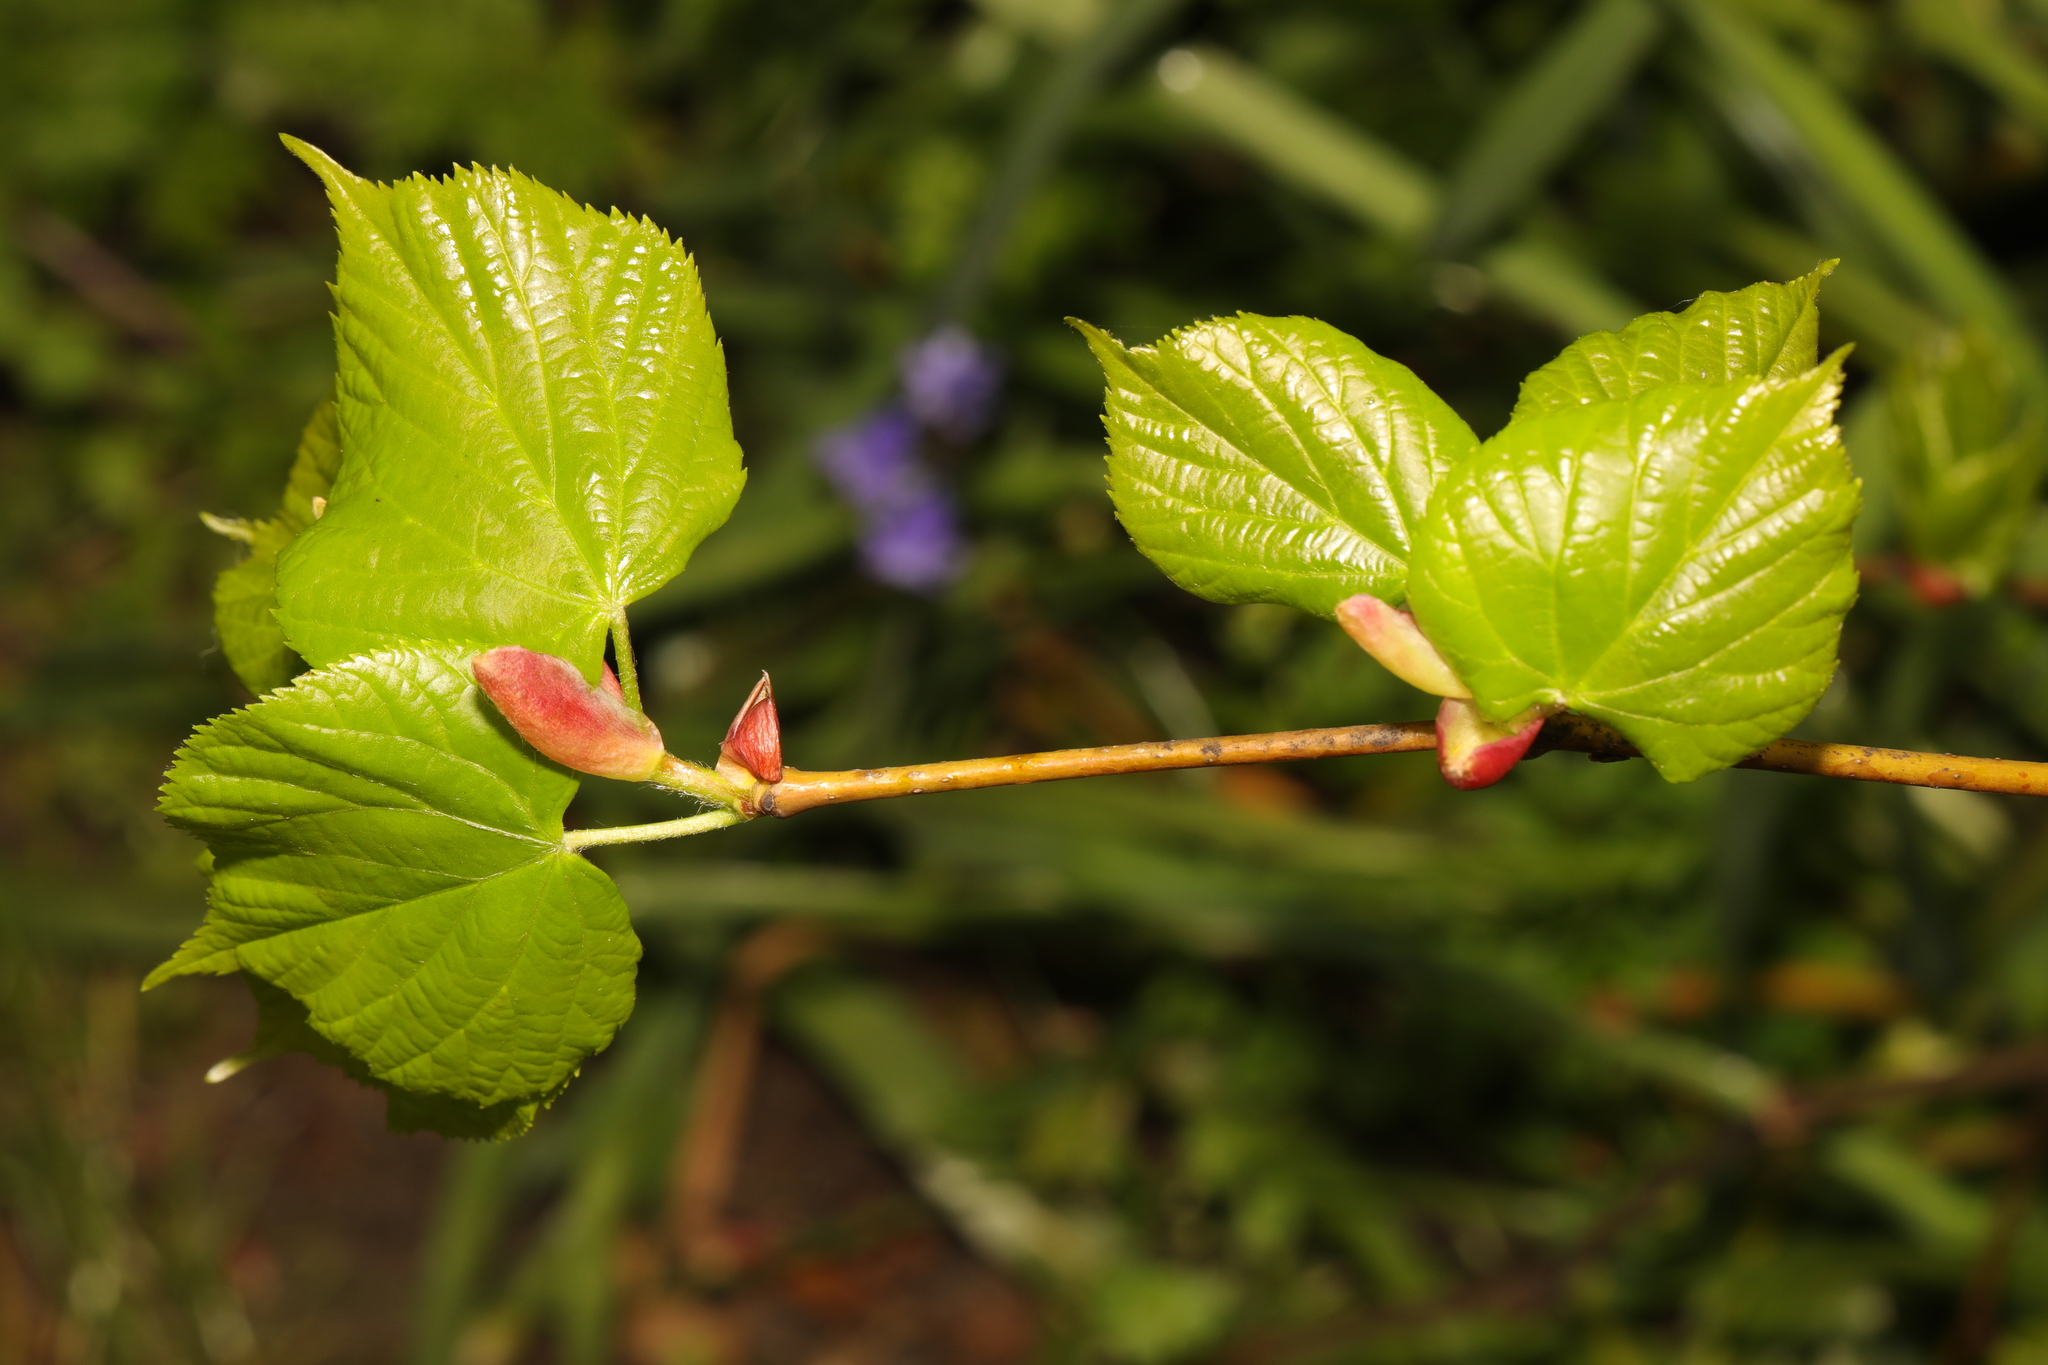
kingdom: Plantae
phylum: Tracheophyta
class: Magnoliopsida
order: Malvales
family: Malvaceae
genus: Tilia
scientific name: Tilia europaea
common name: European linden
